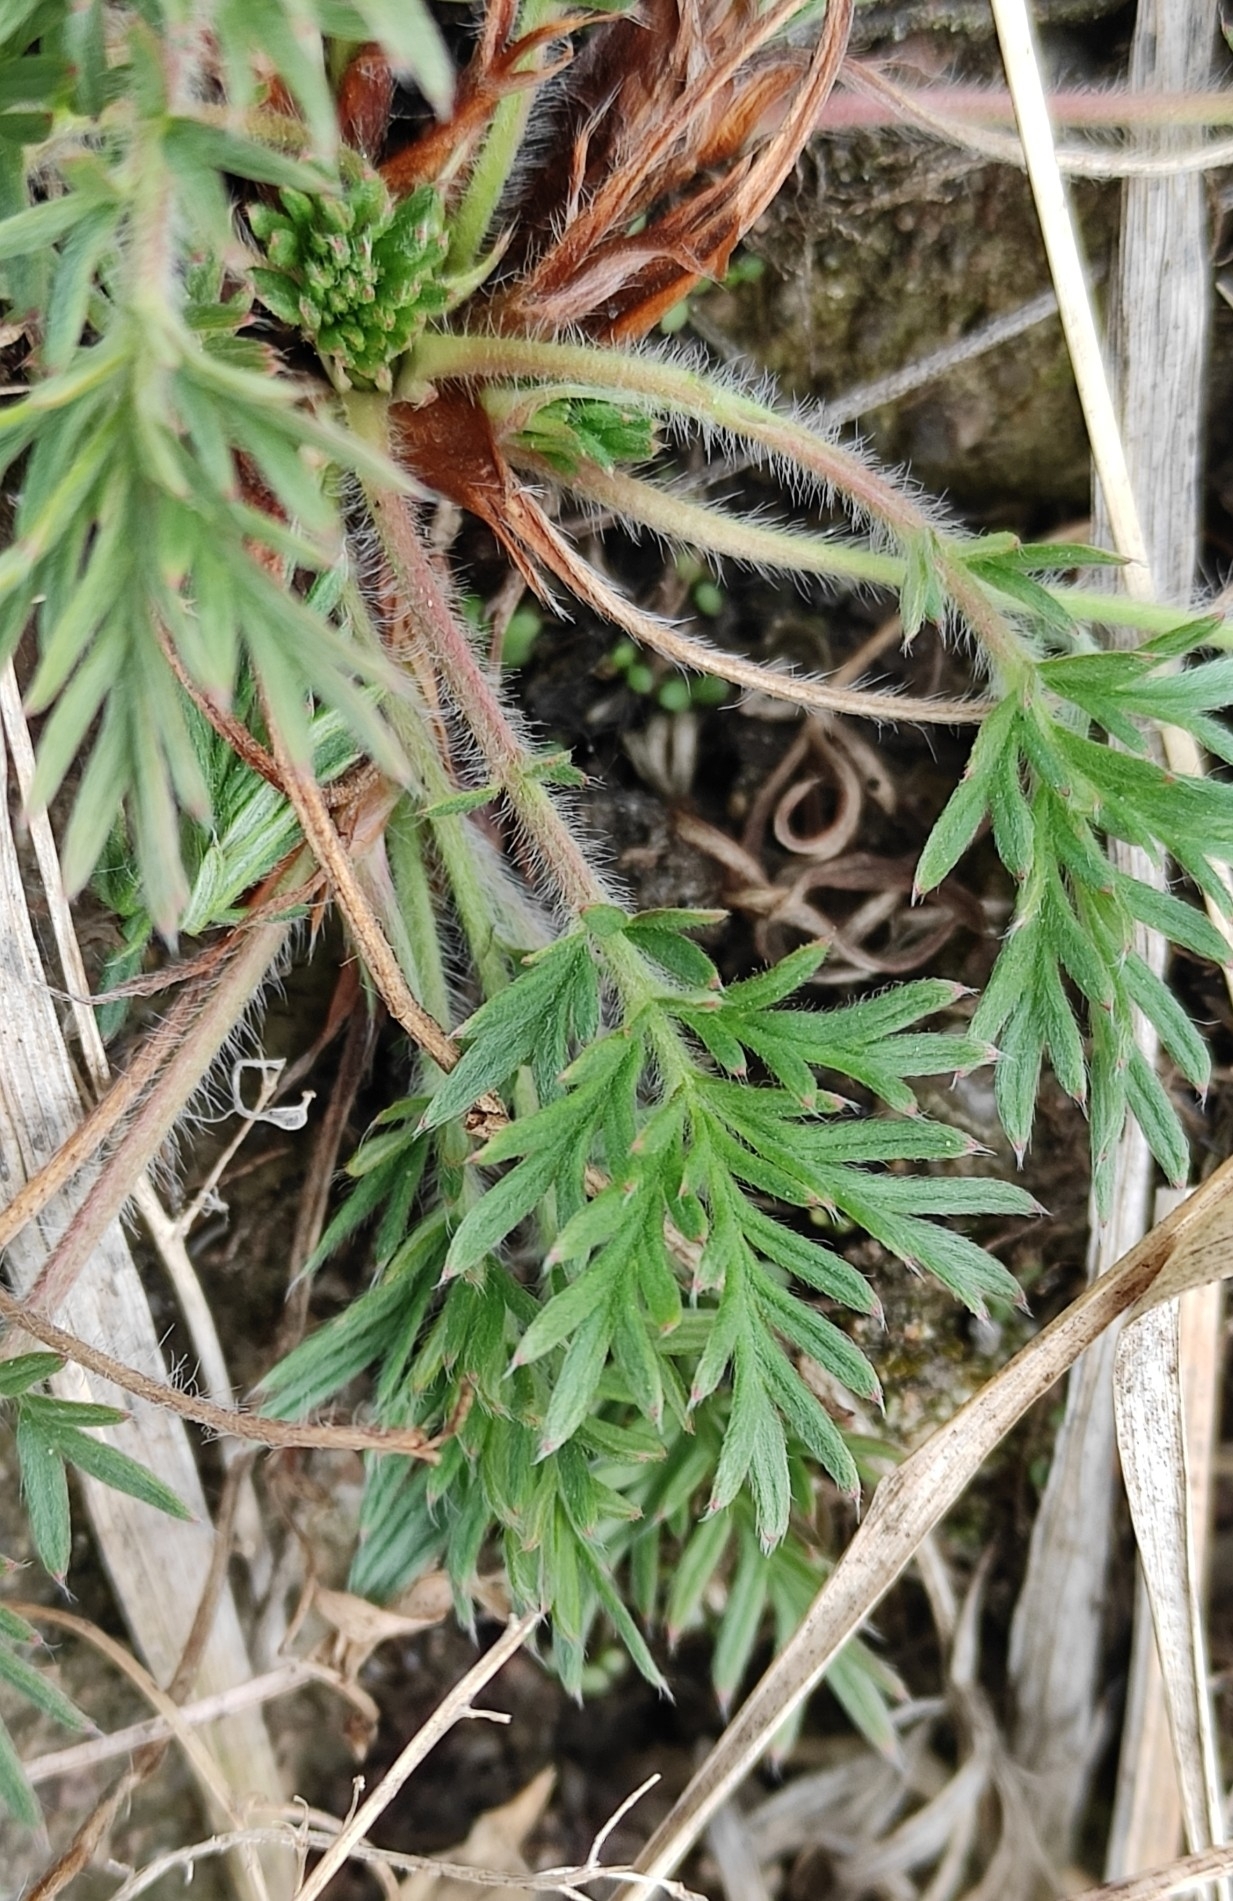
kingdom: Plantae
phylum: Tracheophyta
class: Magnoliopsida
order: Rosales
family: Rosaceae
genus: Potentilla
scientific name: Potentilla tergemina
